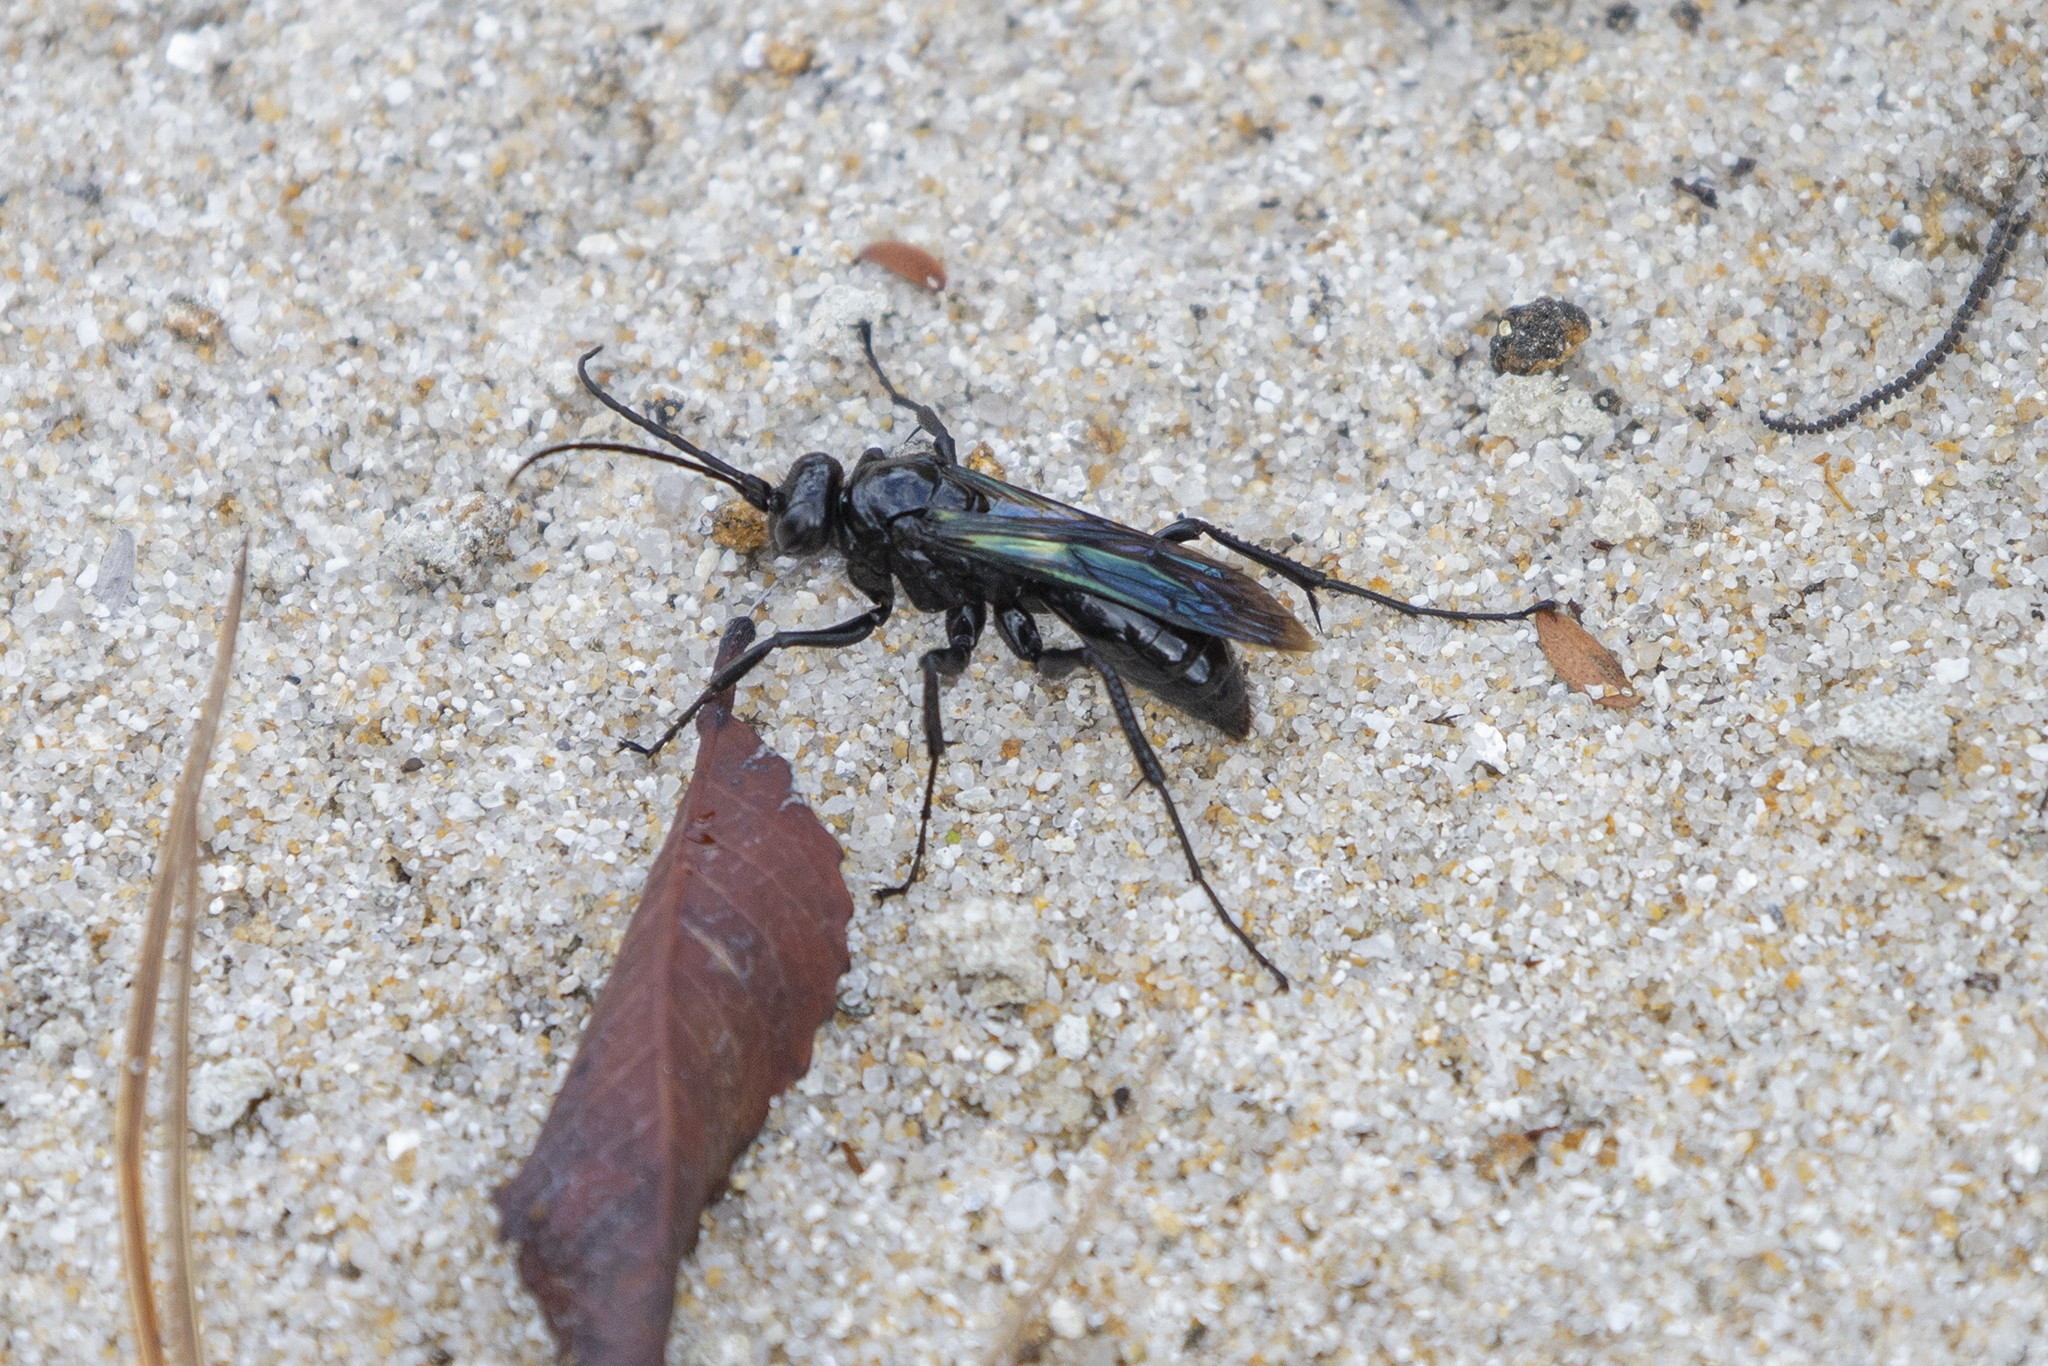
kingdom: Animalia
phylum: Arthropoda
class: Insecta
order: Hymenoptera
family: Pompilidae
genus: Priocnemis
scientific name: Priocnemis monachus
